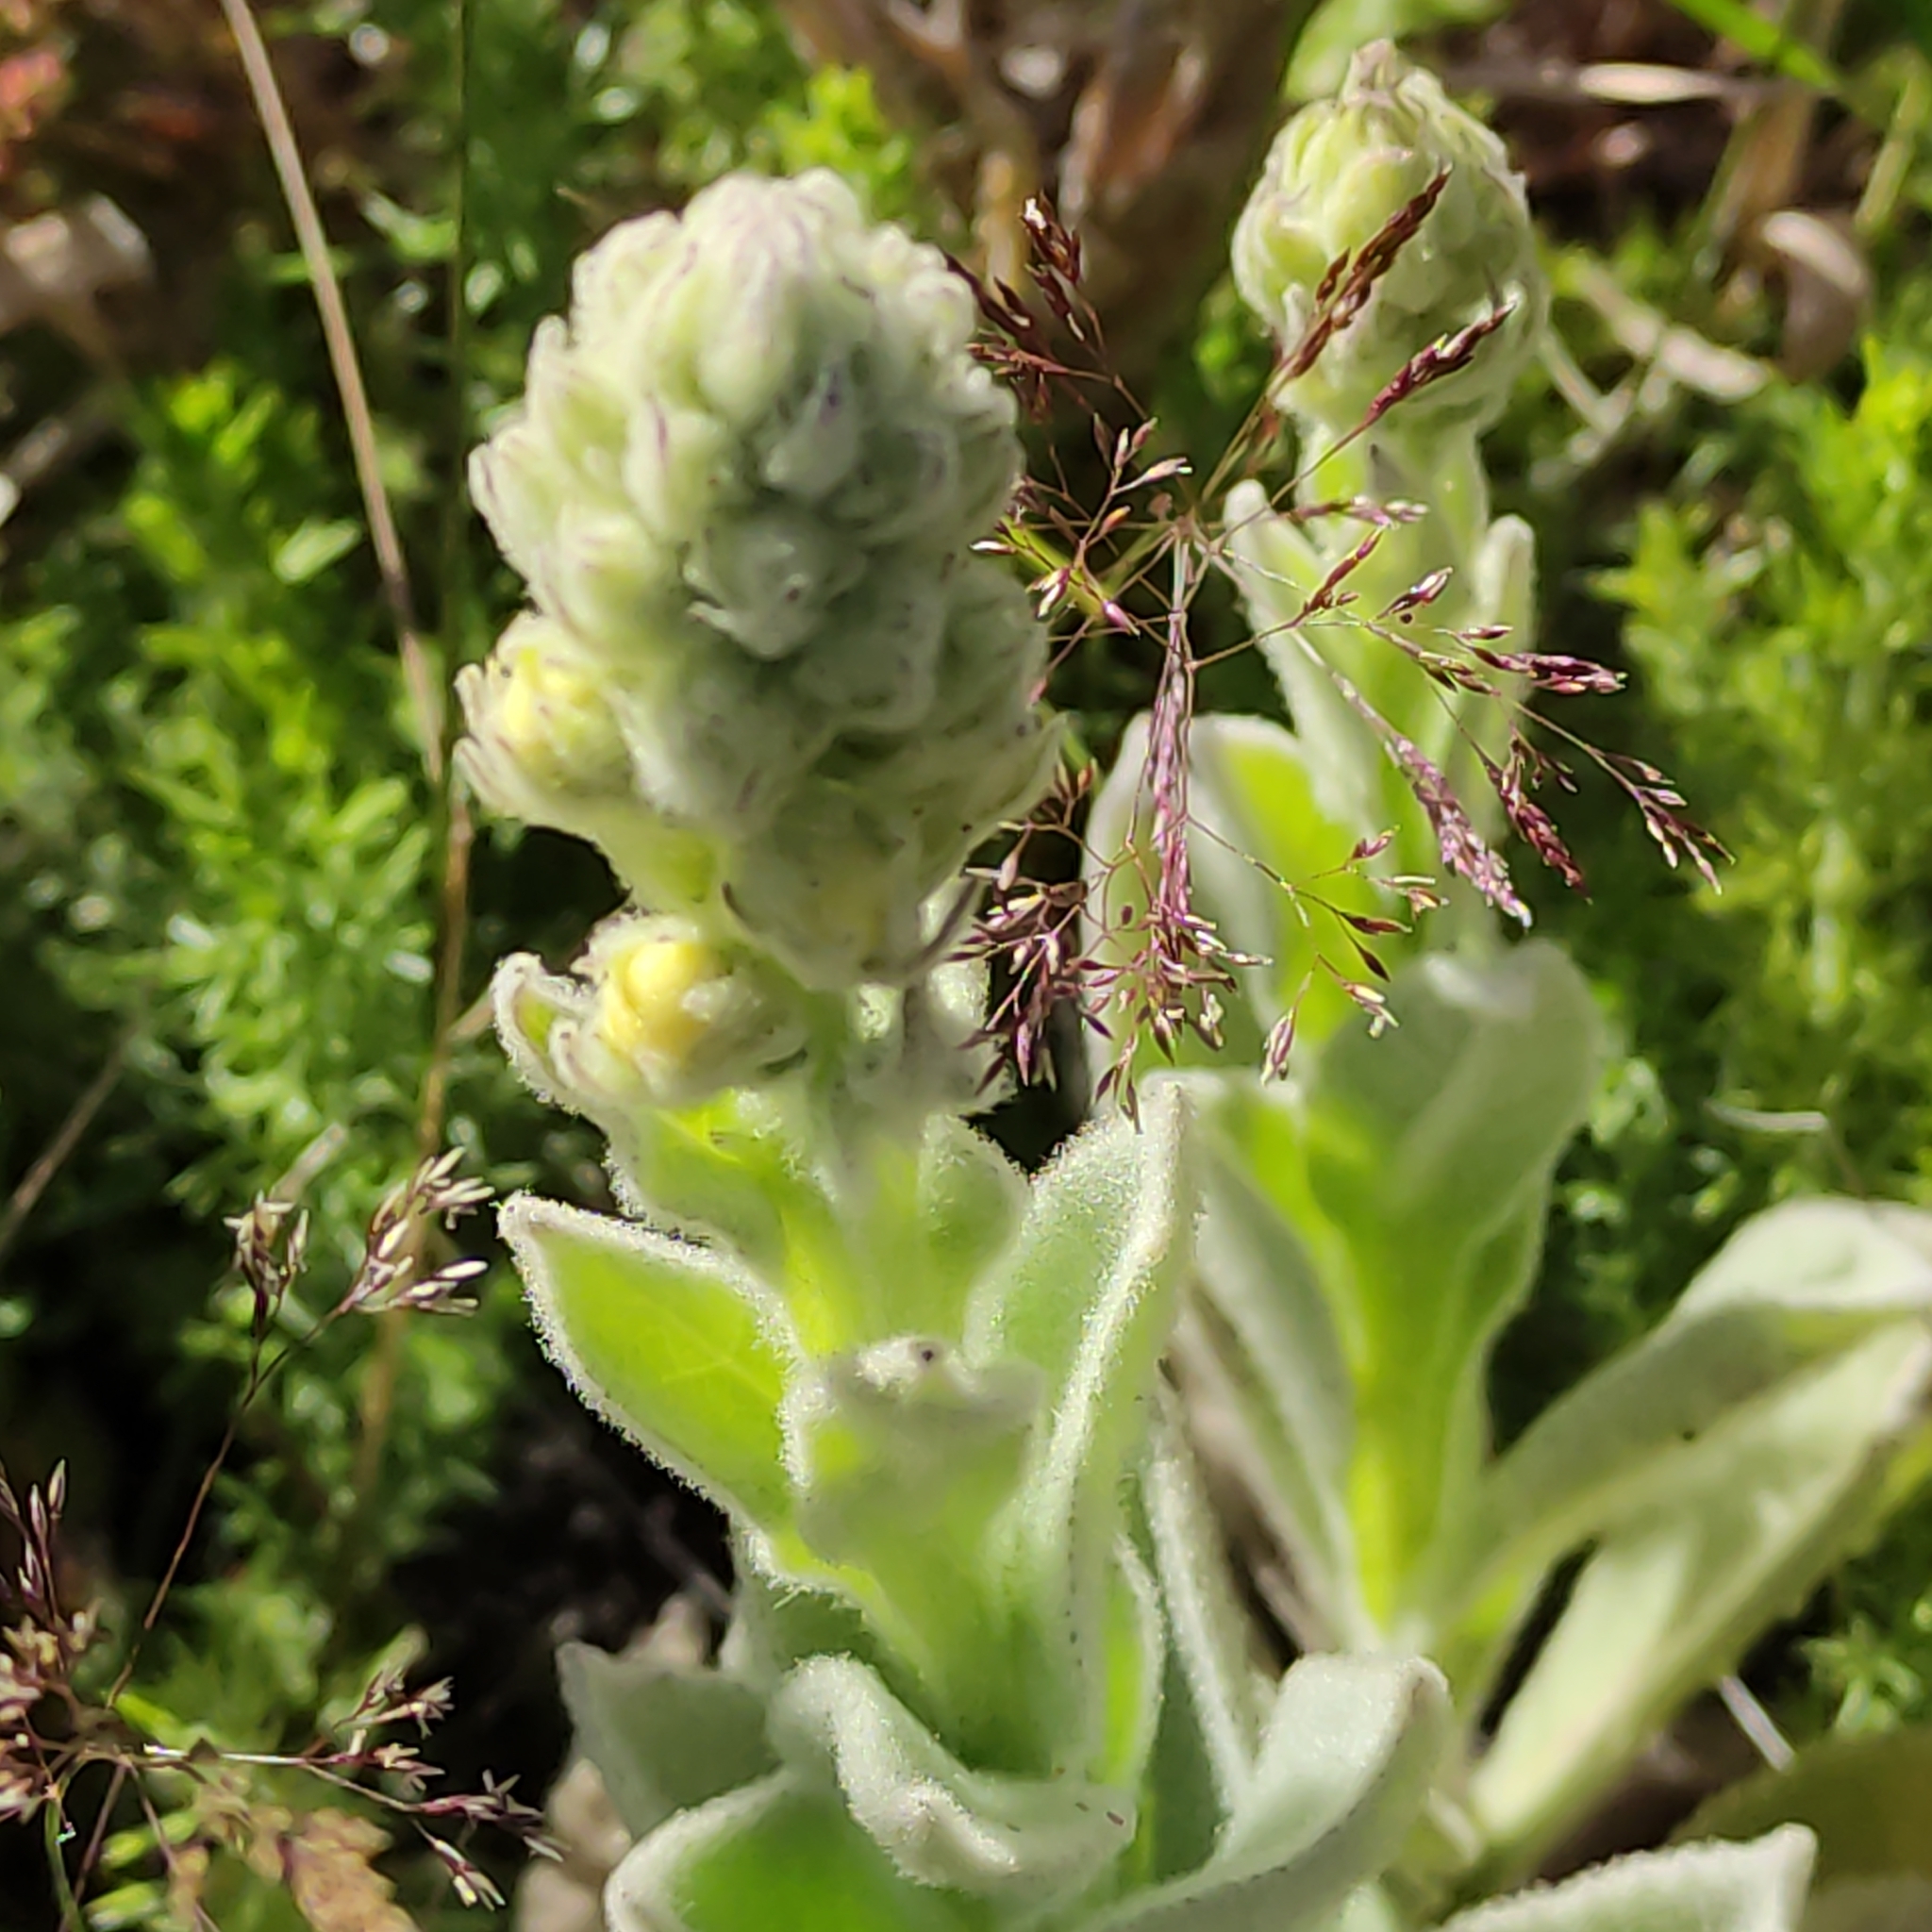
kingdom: Plantae
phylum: Tracheophyta
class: Magnoliopsida
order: Lamiales
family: Scrophulariaceae
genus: Verbascum
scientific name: Verbascum thapsus
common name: Common mullein
